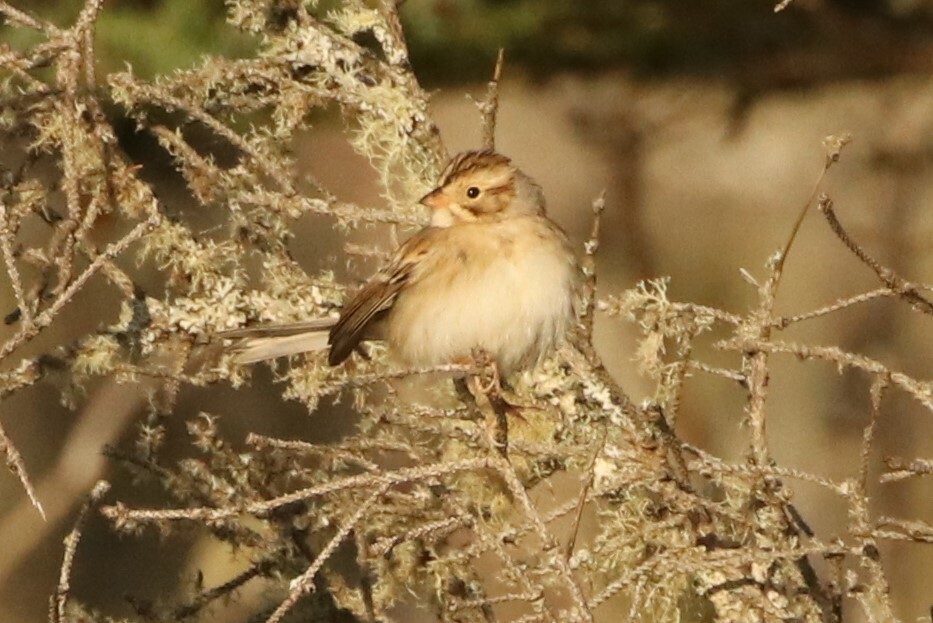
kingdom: Animalia
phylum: Chordata
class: Aves
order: Passeriformes
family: Passerellidae
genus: Spizella
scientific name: Spizella pallida
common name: Clay-colored sparrow
